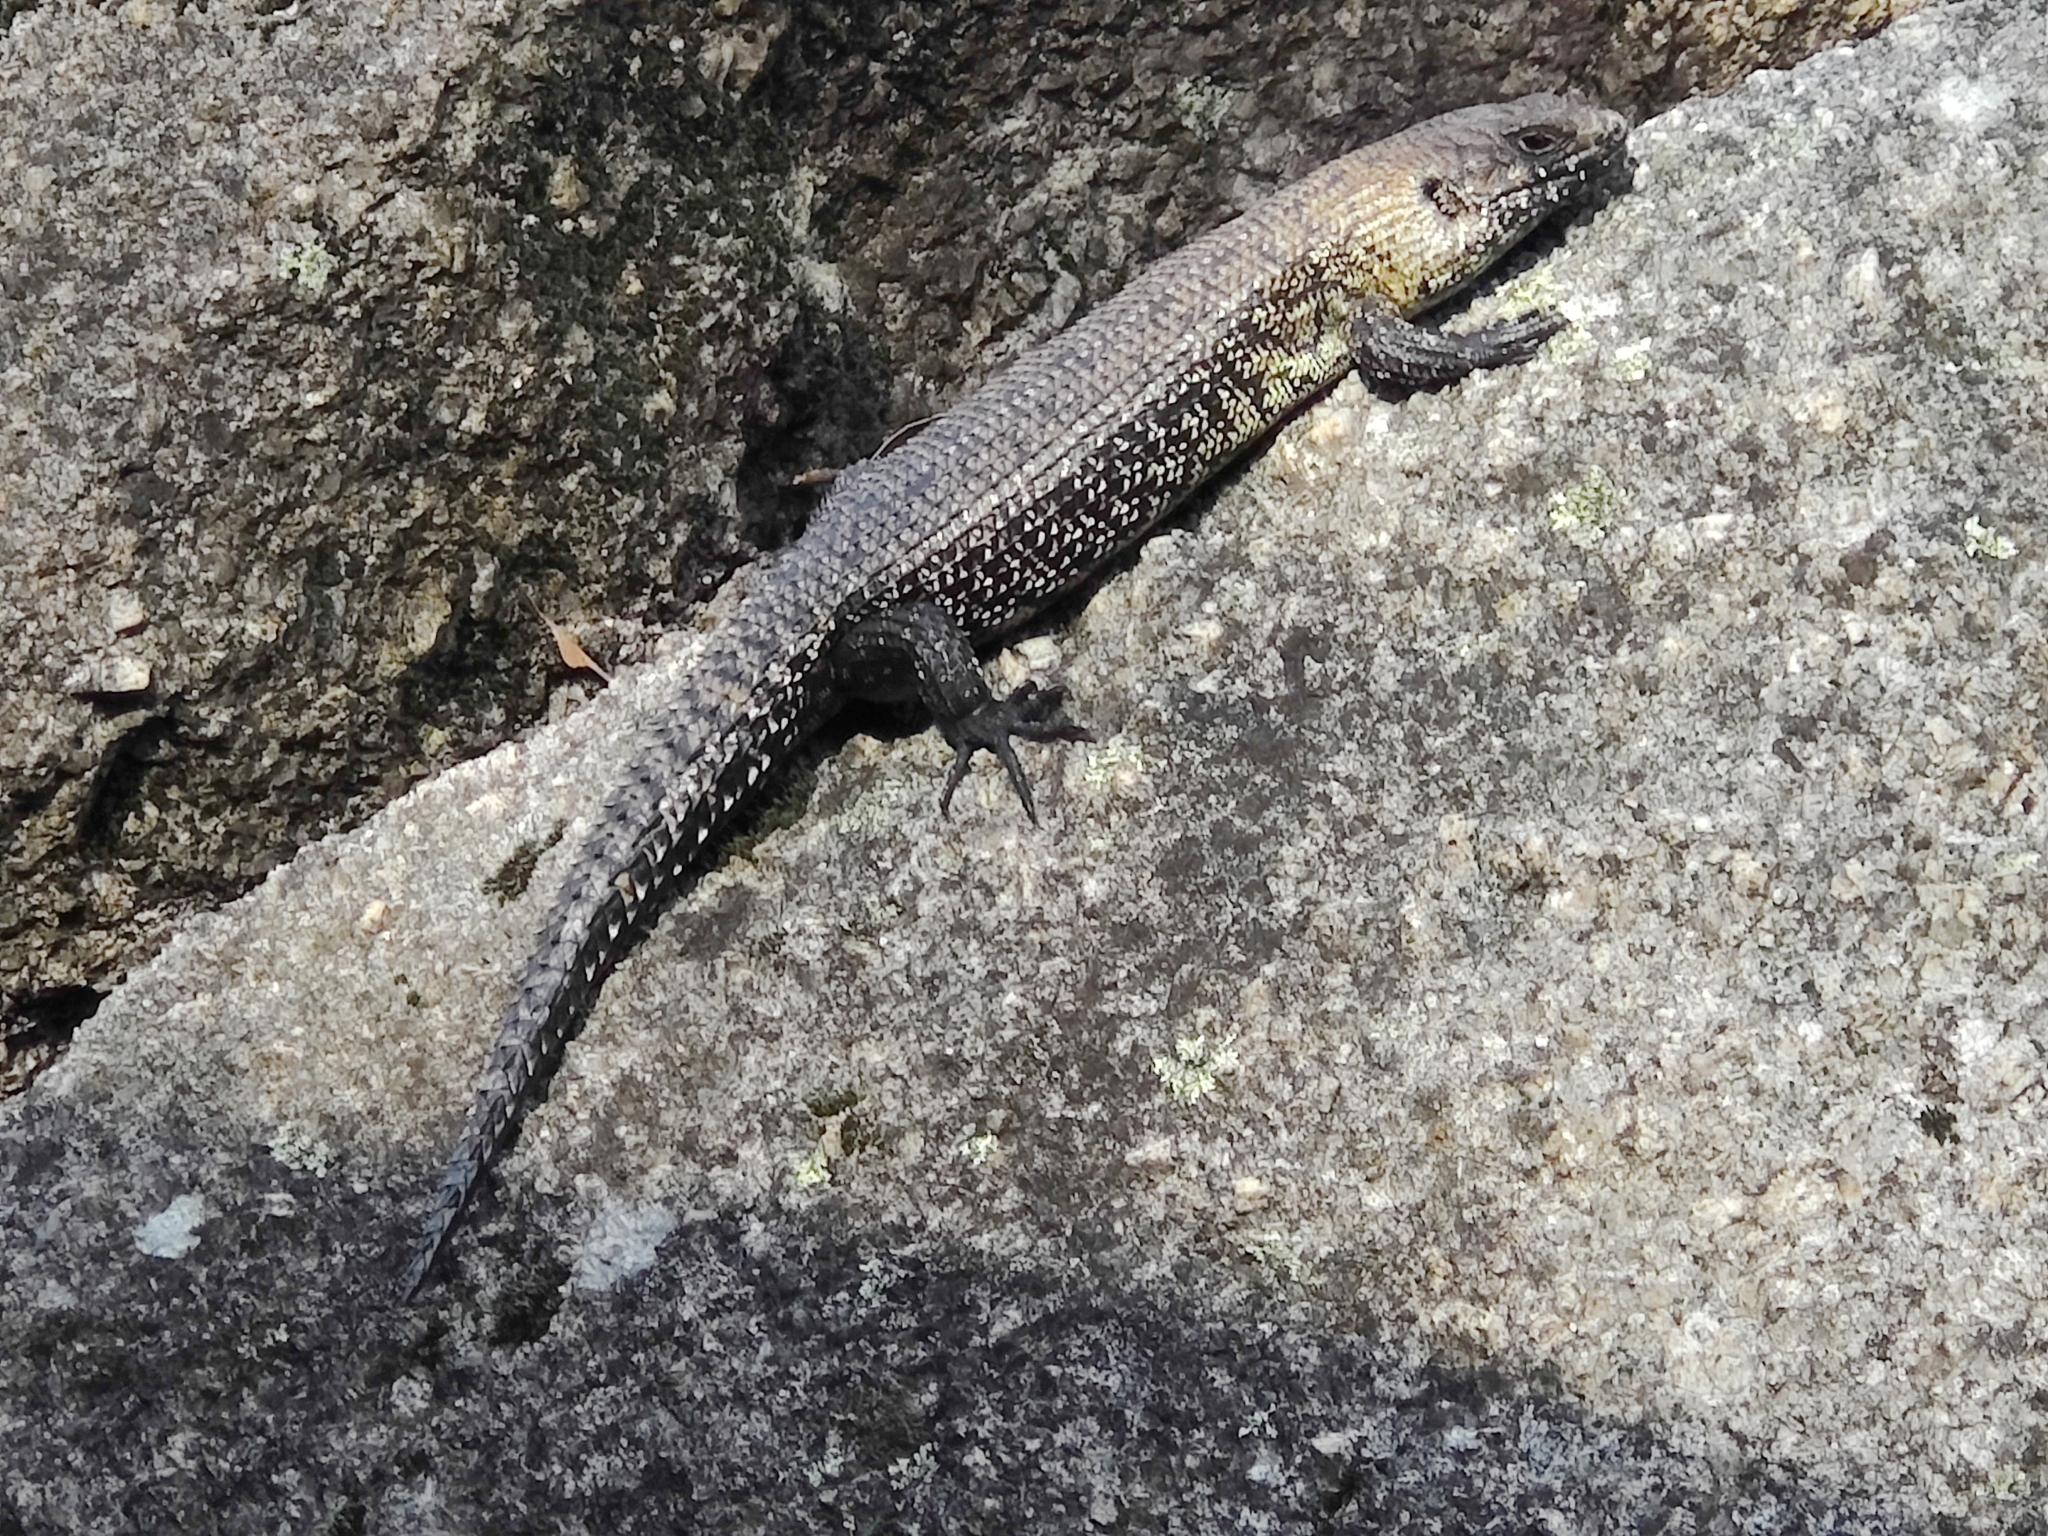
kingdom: Animalia
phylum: Chordata
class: Squamata
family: Scincidae
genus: Egernia
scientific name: Egernia cunninghami
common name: Cunningham's skink
